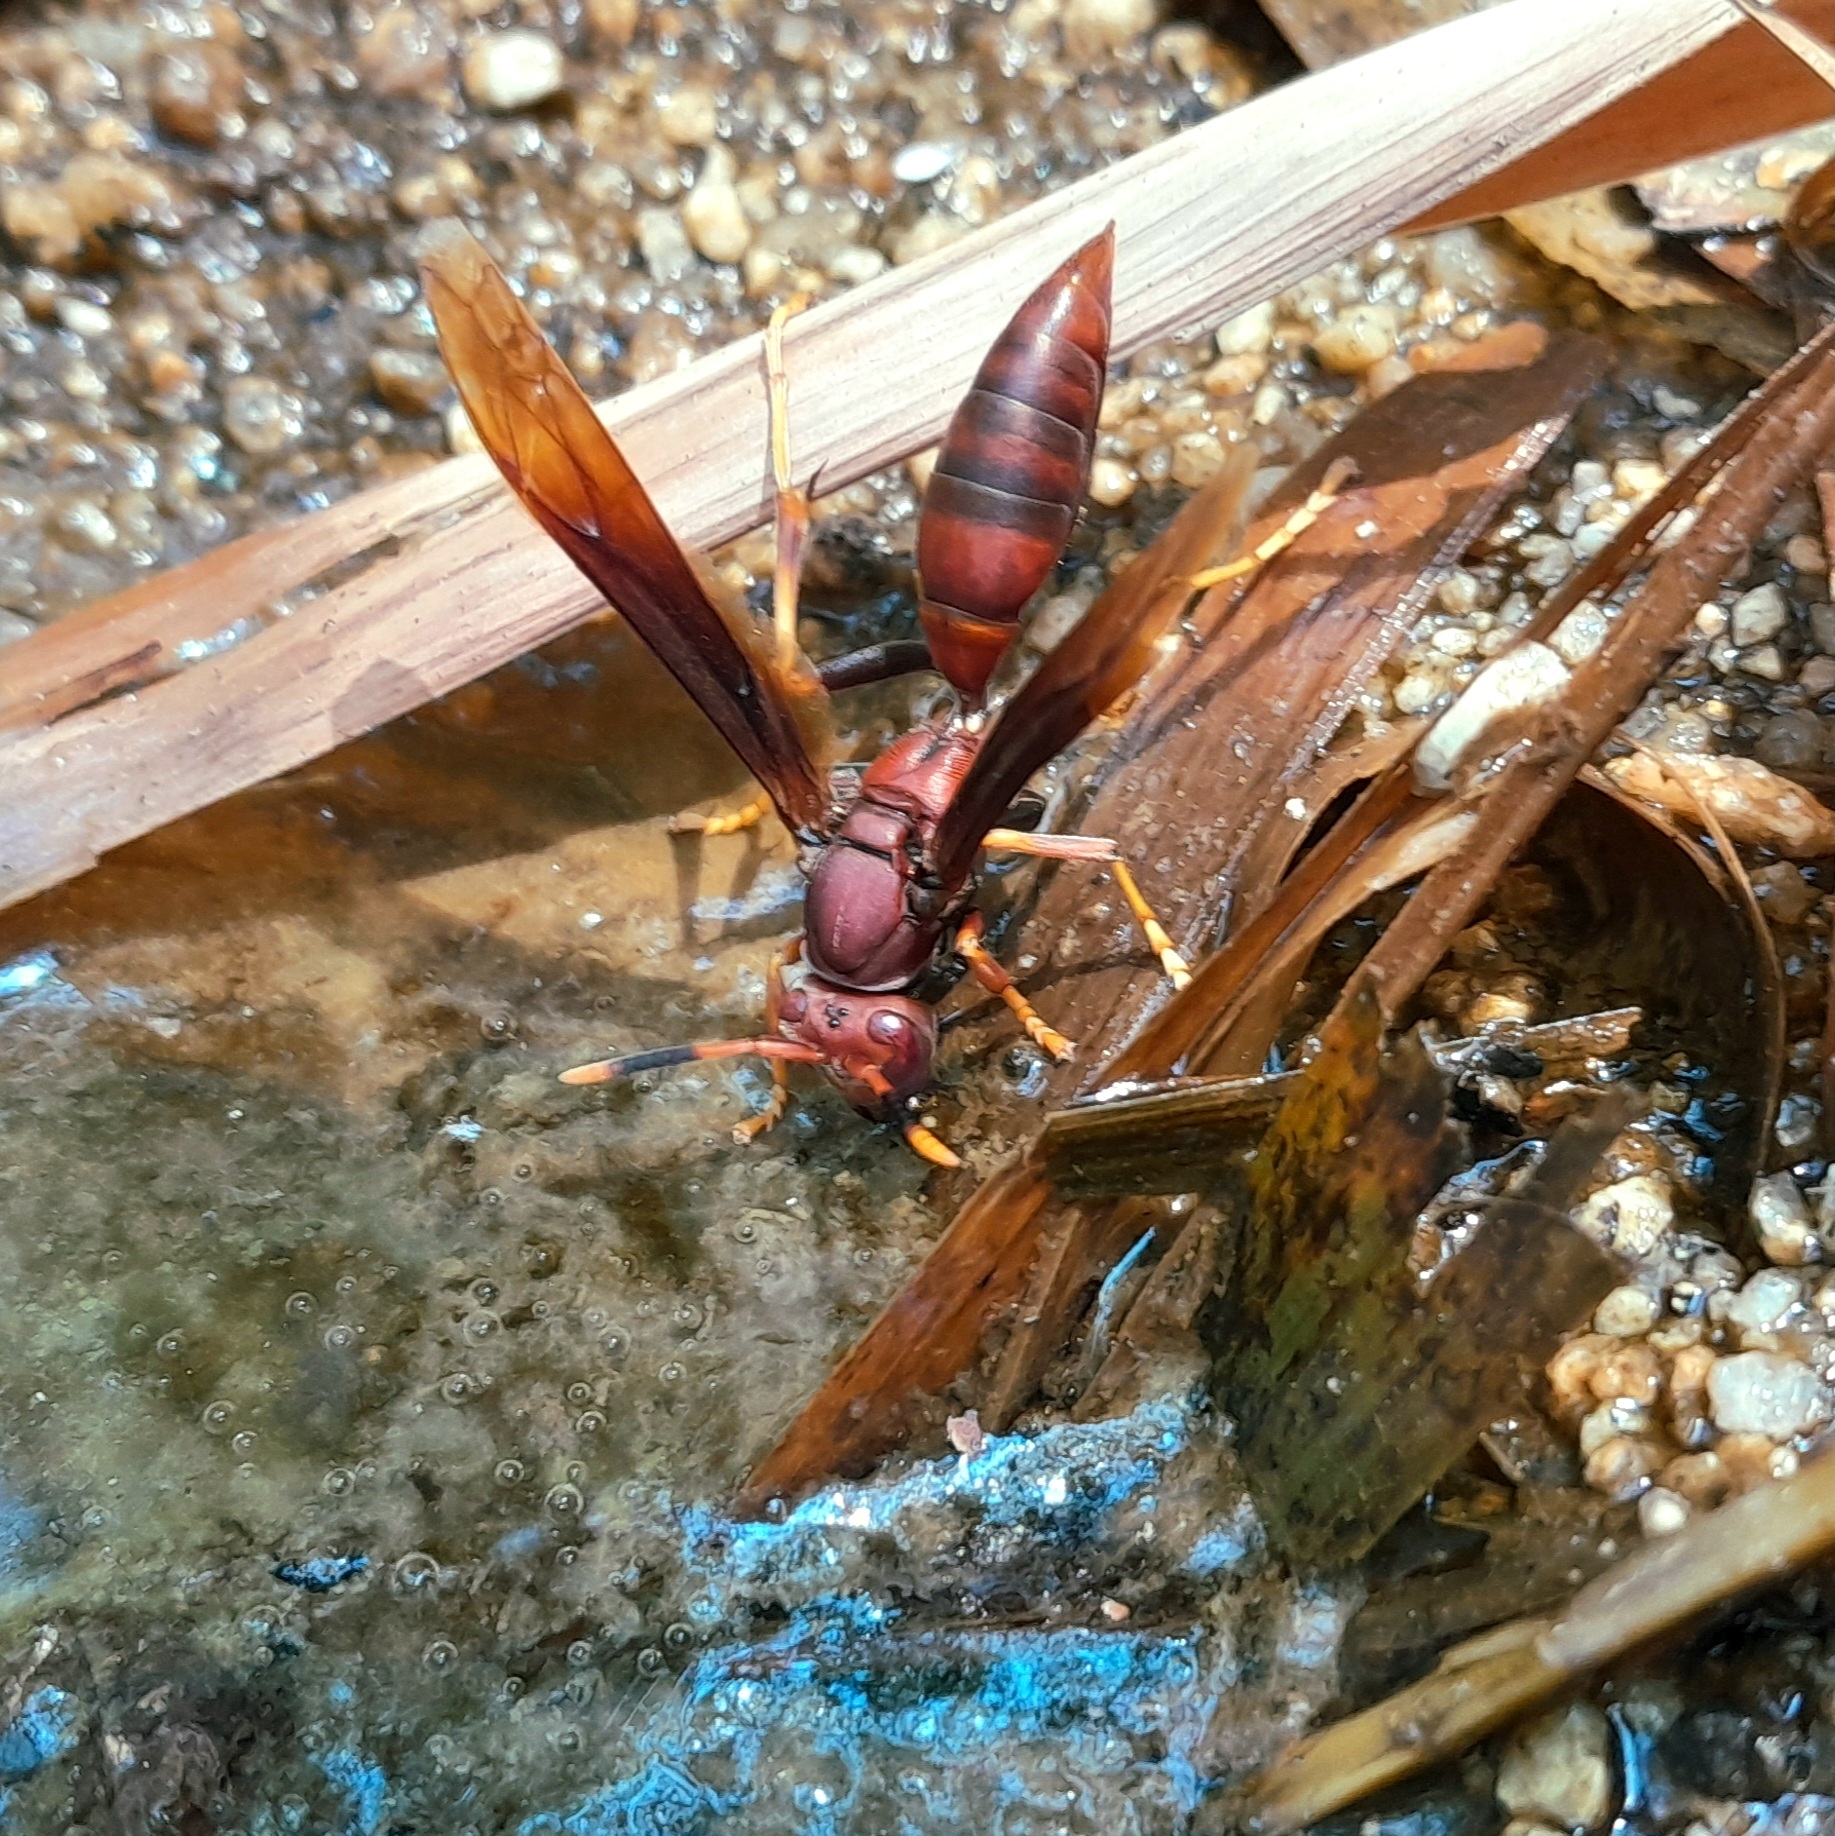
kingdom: Animalia
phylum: Arthropoda
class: Insecta
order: Hymenoptera
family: Eumenidae
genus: Polistes
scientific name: Polistes lanio
